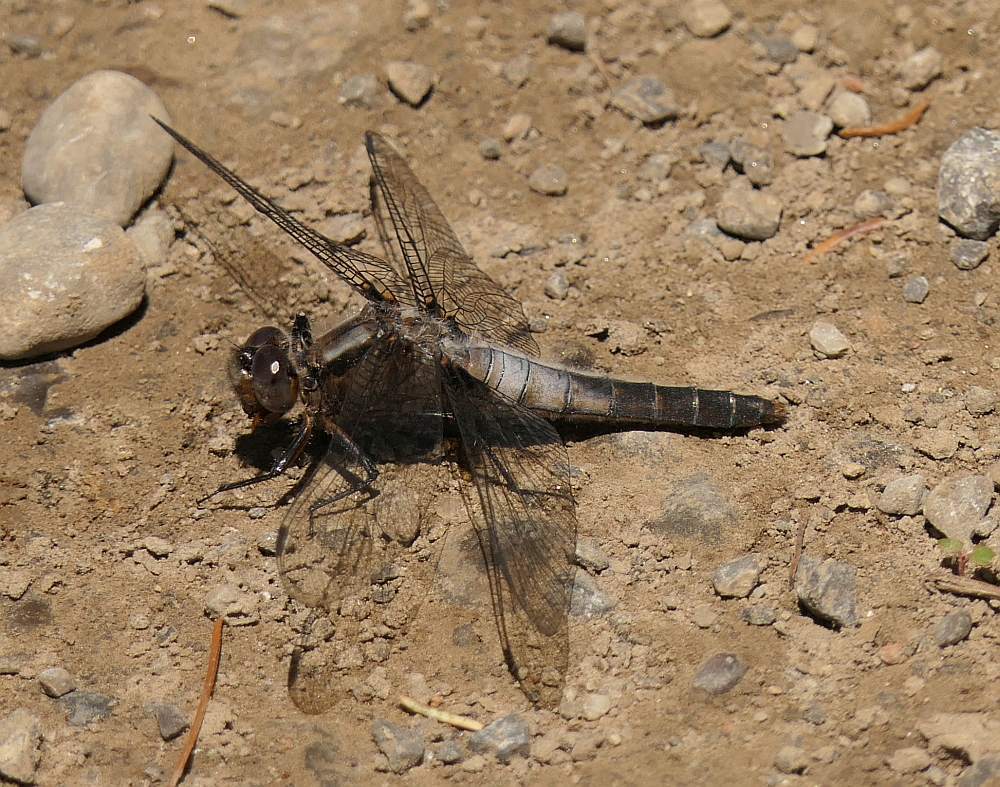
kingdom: Animalia
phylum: Arthropoda
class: Insecta
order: Odonata
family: Libellulidae
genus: Ladona
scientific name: Ladona julia
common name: Chalk-fronted corporal
